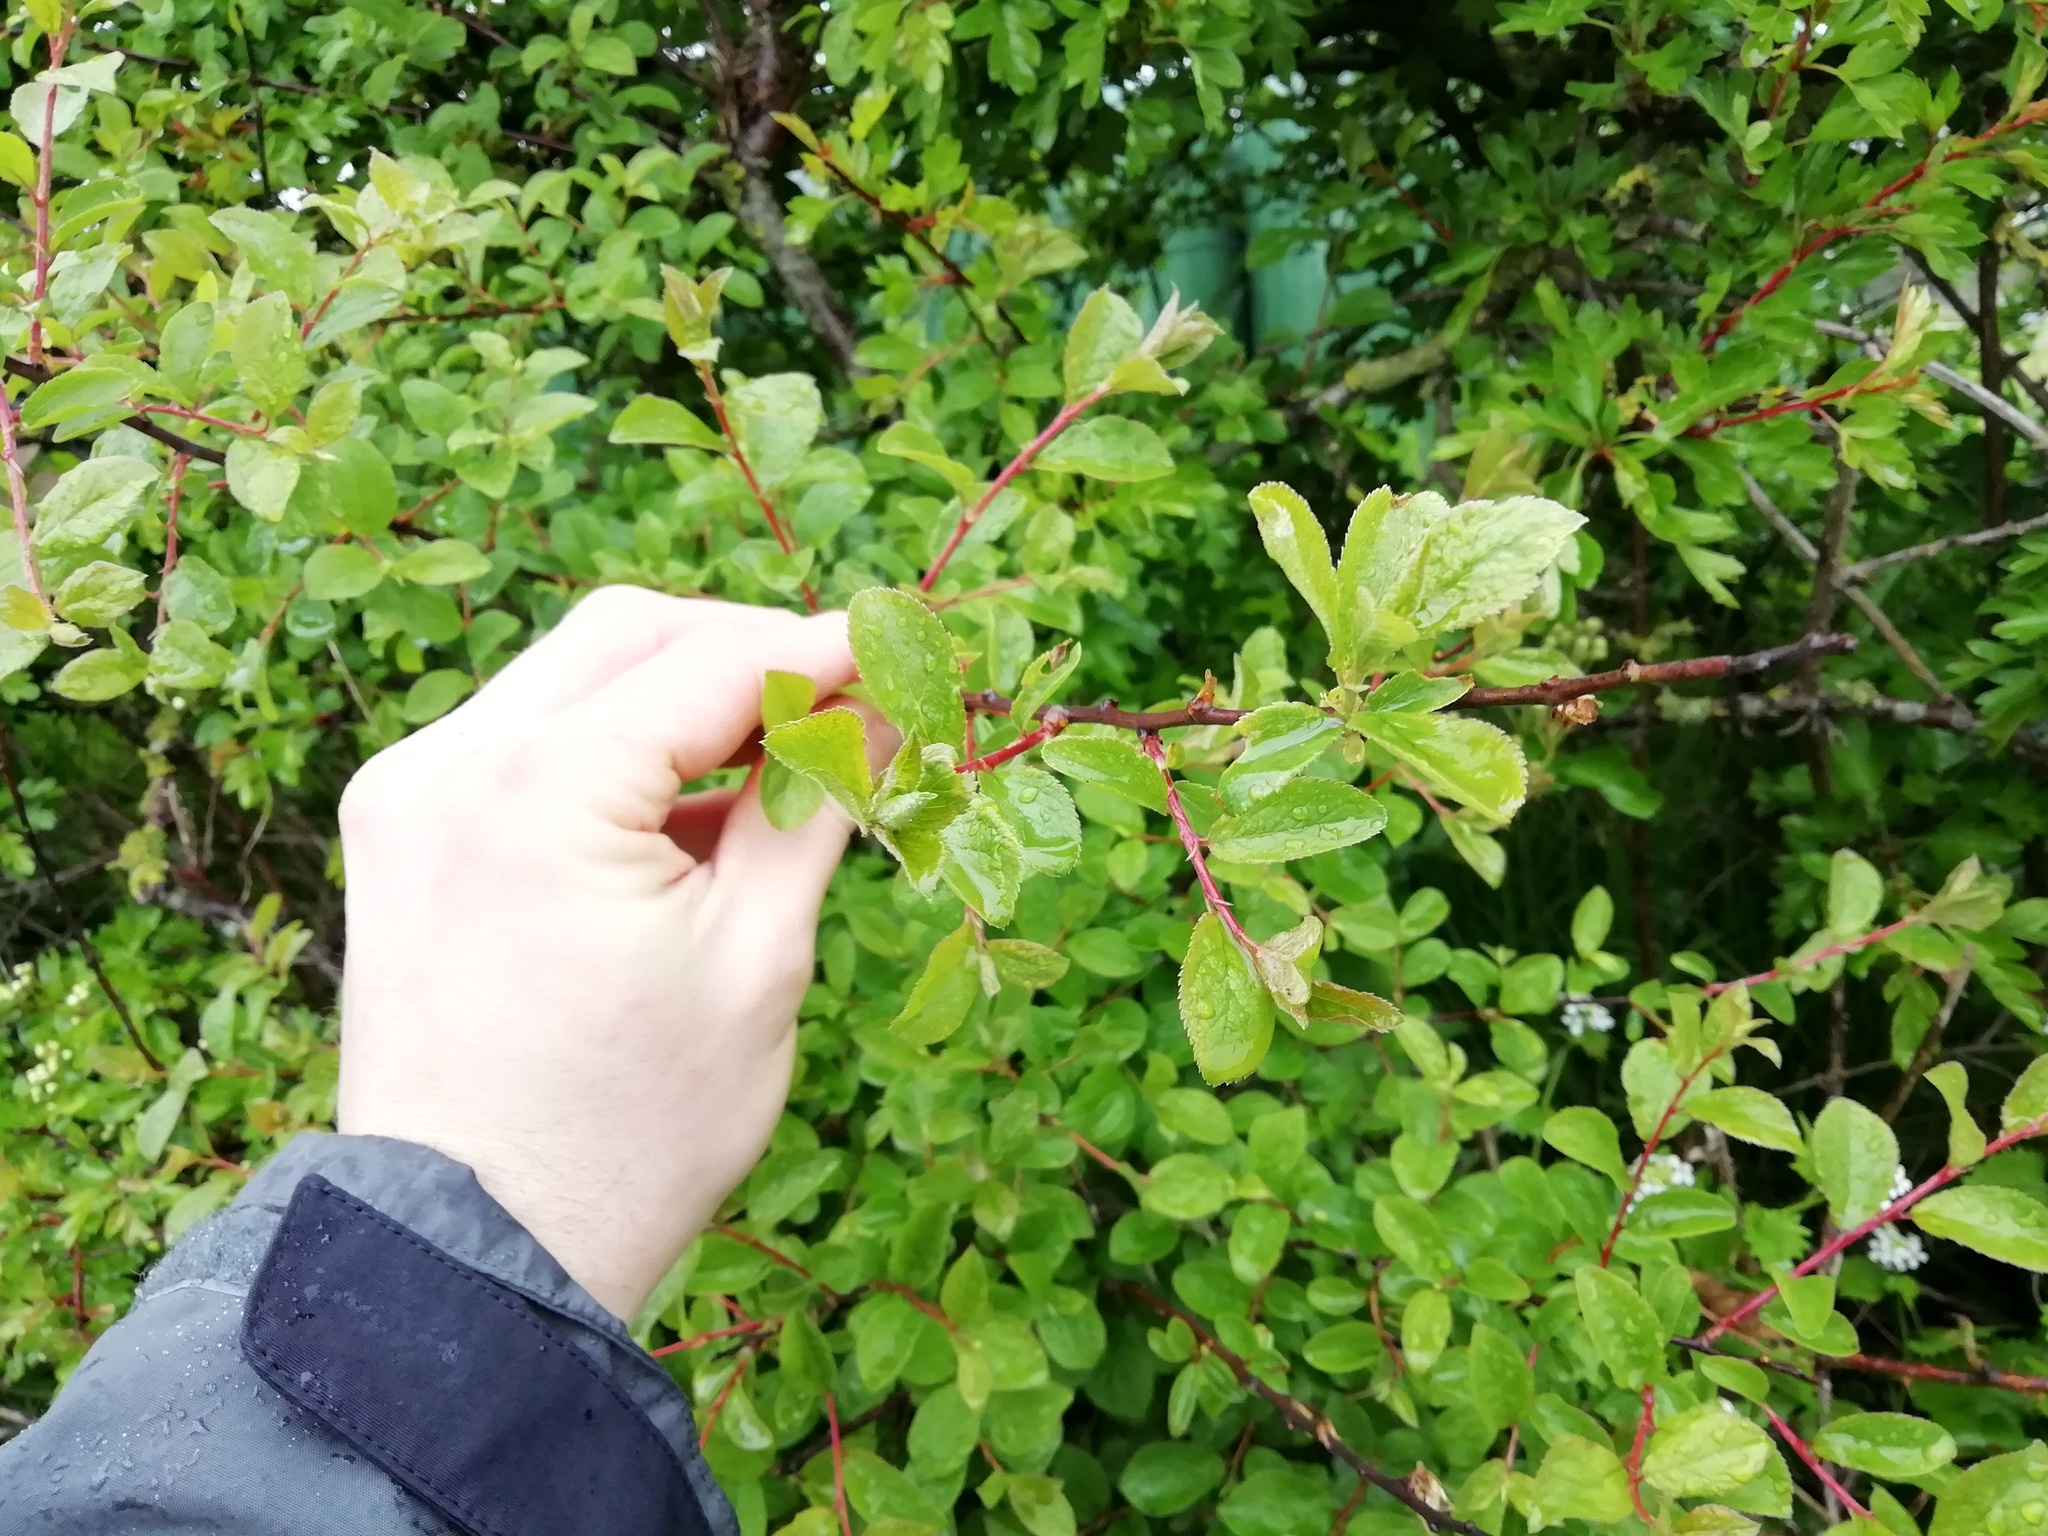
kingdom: Plantae
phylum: Tracheophyta
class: Magnoliopsida
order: Rosales
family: Rosaceae
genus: Prunus
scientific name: Prunus spinosa
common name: Blackthorn
